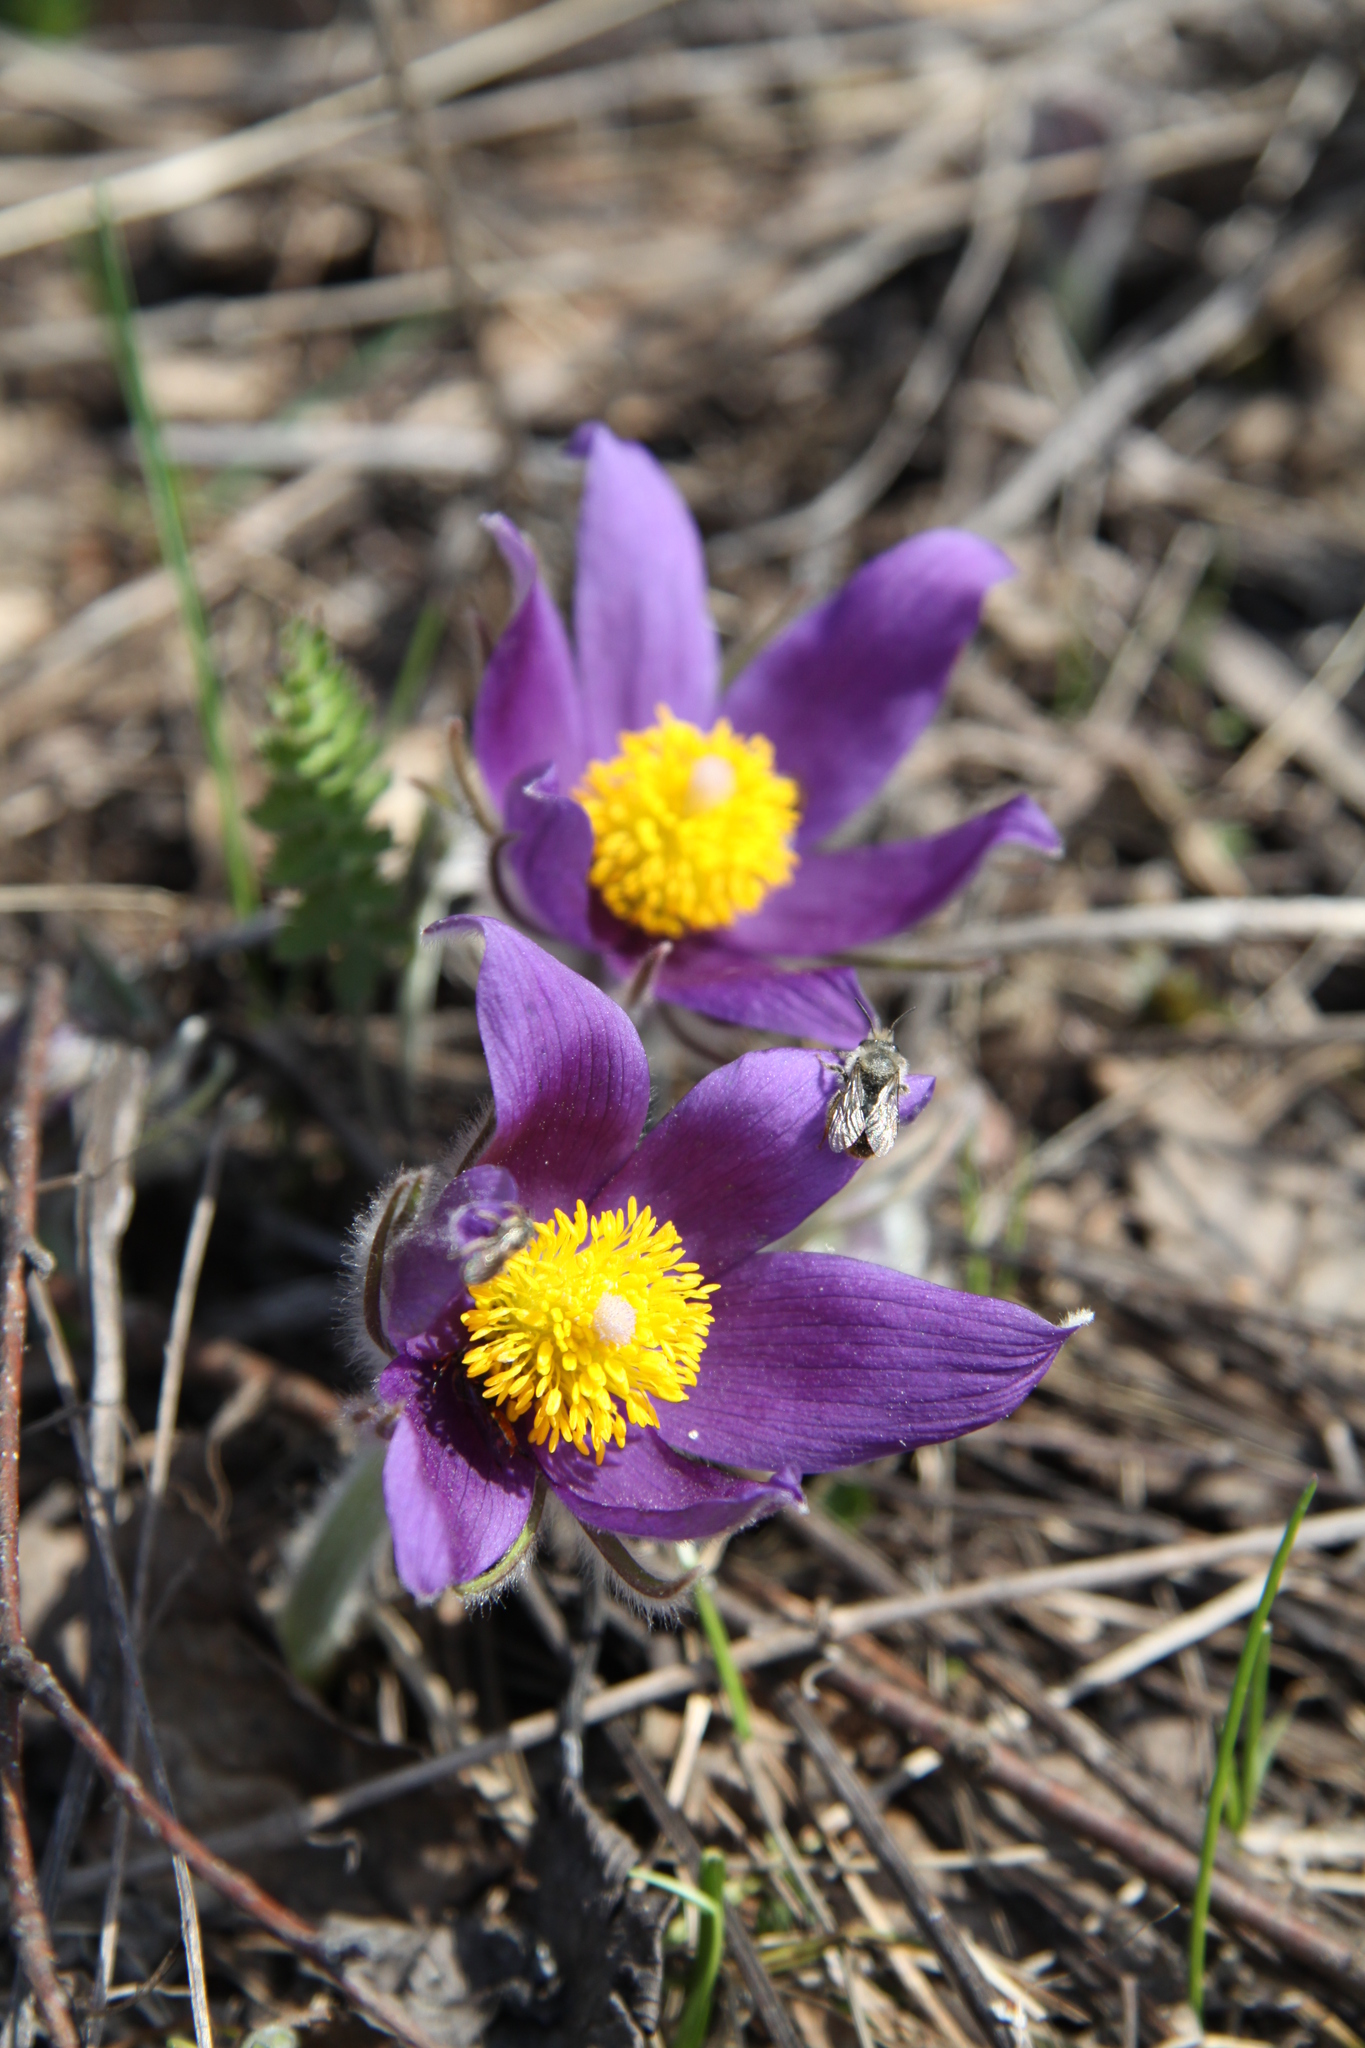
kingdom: Plantae
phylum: Tracheophyta
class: Magnoliopsida
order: Ranunculales
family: Ranunculaceae
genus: Pulsatilla
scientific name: Pulsatilla patens
